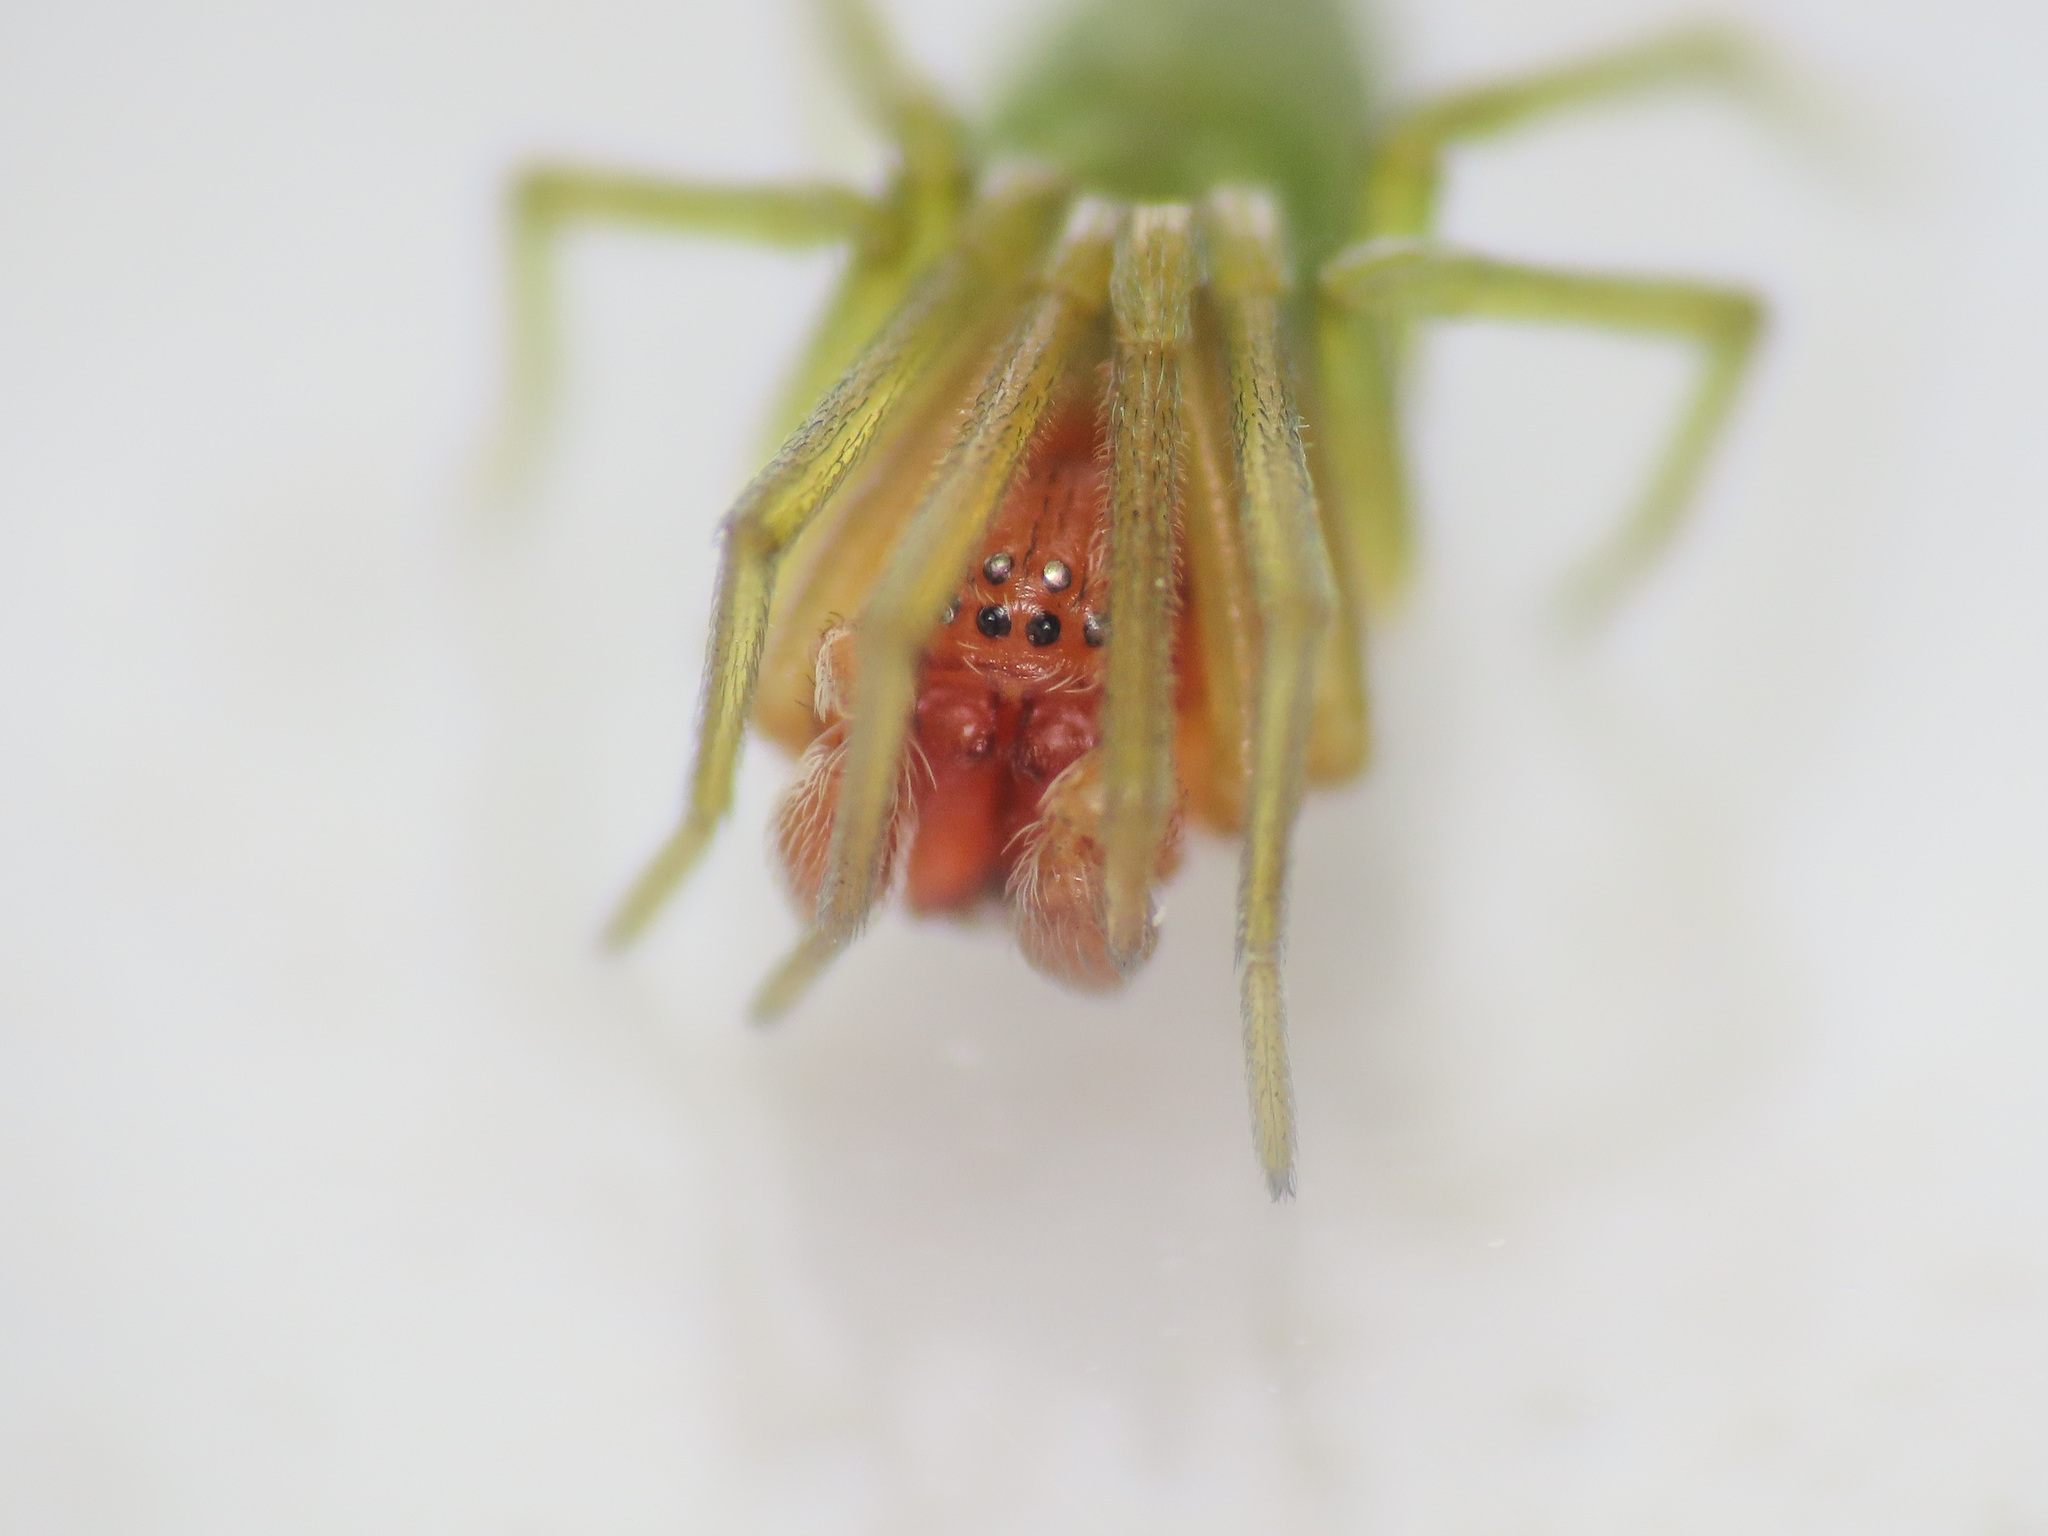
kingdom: Animalia
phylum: Arthropoda
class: Arachnida
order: Araneae
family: Dictynidae
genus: Nigma
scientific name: Nigma walckenaeri
